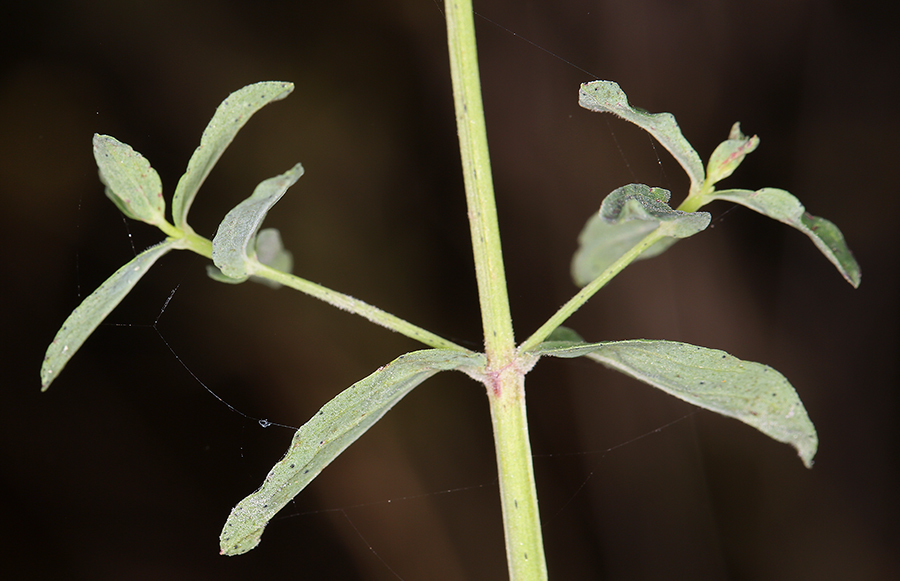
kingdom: Plantae
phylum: Tracheophyta
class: Magnoliopsida
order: Malpighiales
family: Hypericaceae
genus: Hypericum
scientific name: Hypericum perforatum
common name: Common st. johnswort
